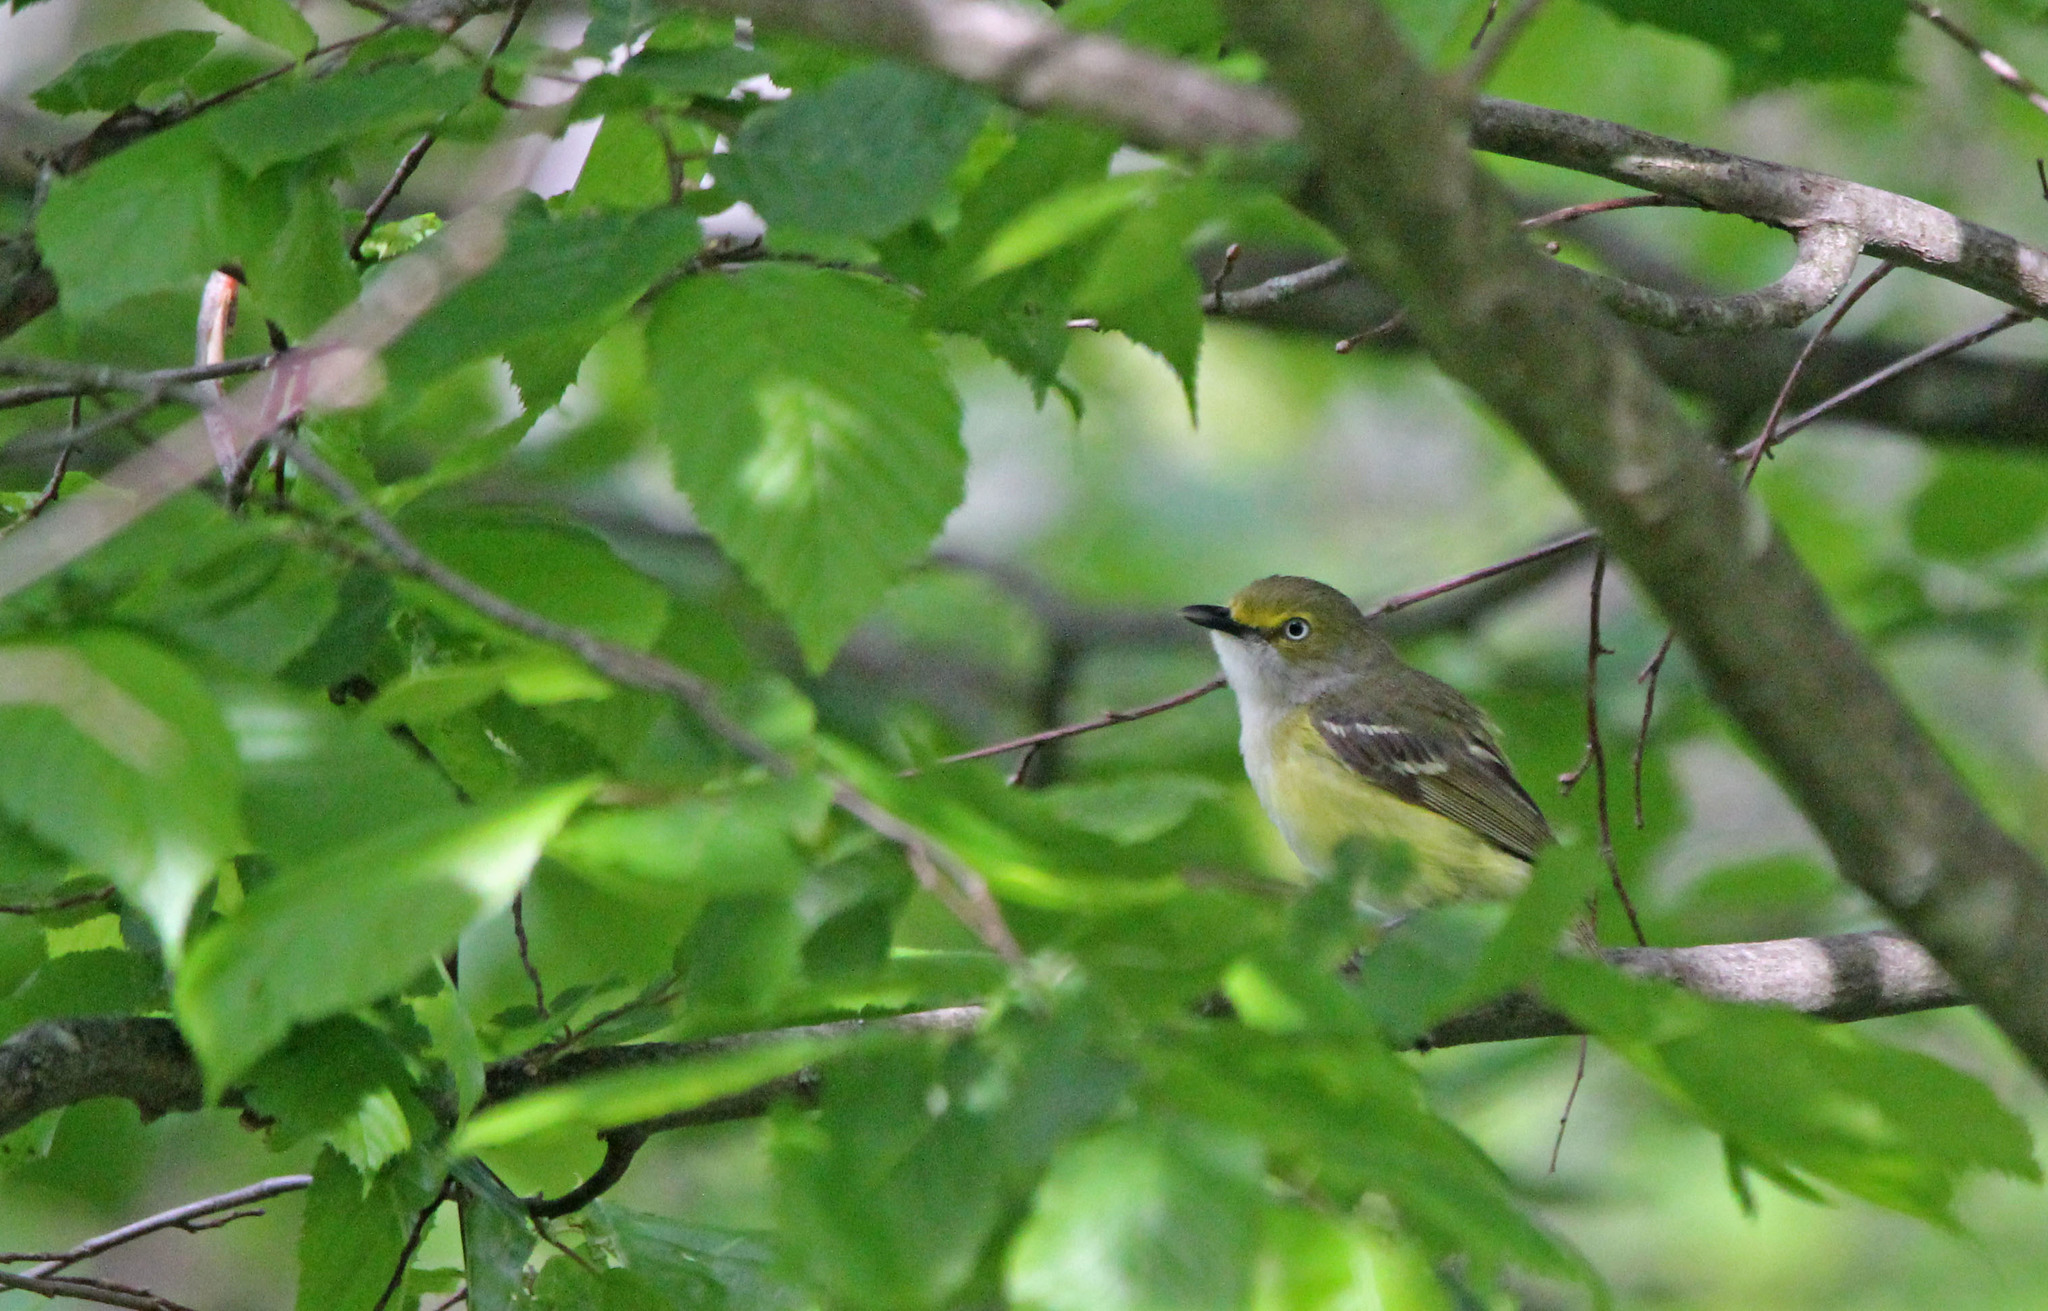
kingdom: Animalia
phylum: Chordata
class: Aves
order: Passeriformes
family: Vireonidae
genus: Vireo
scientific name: Vireo griseus
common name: White-eyed vireo
